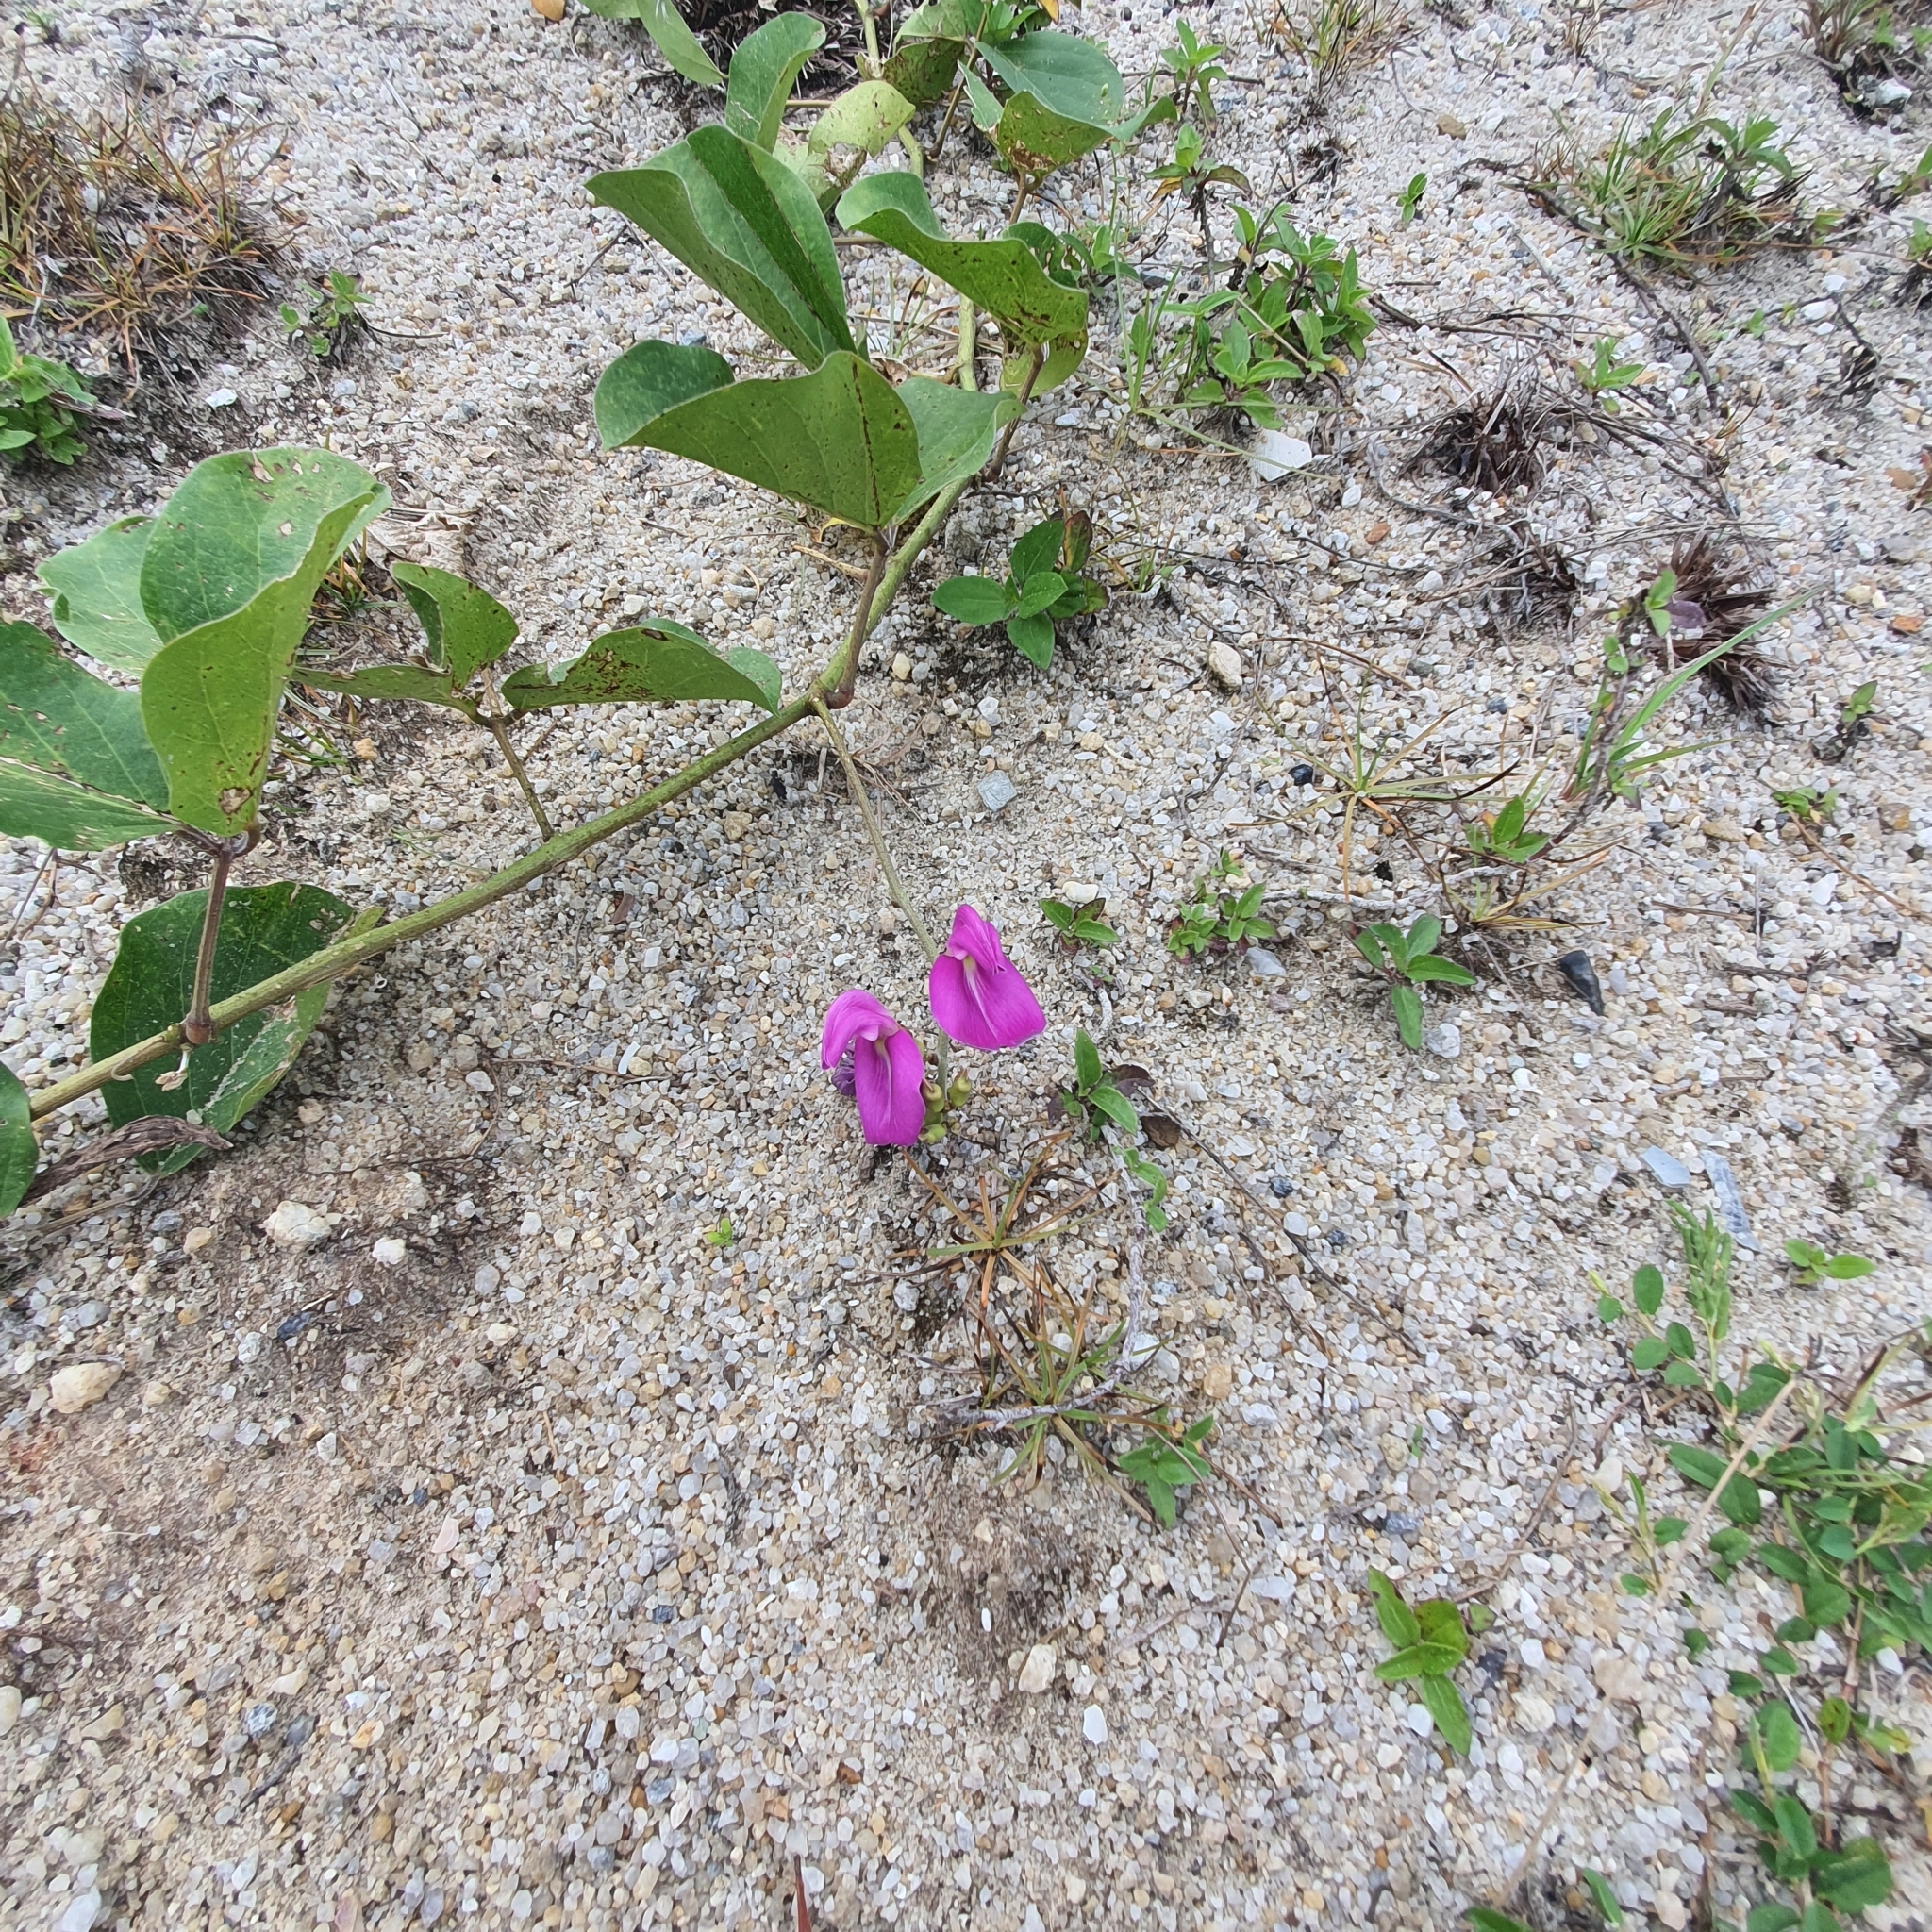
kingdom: Plantae
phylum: Tracheophyta
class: Magnoliopsida
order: Fabales
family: Fabaceae
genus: Canavalia
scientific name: Canavalia rosea
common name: Beach-bean
